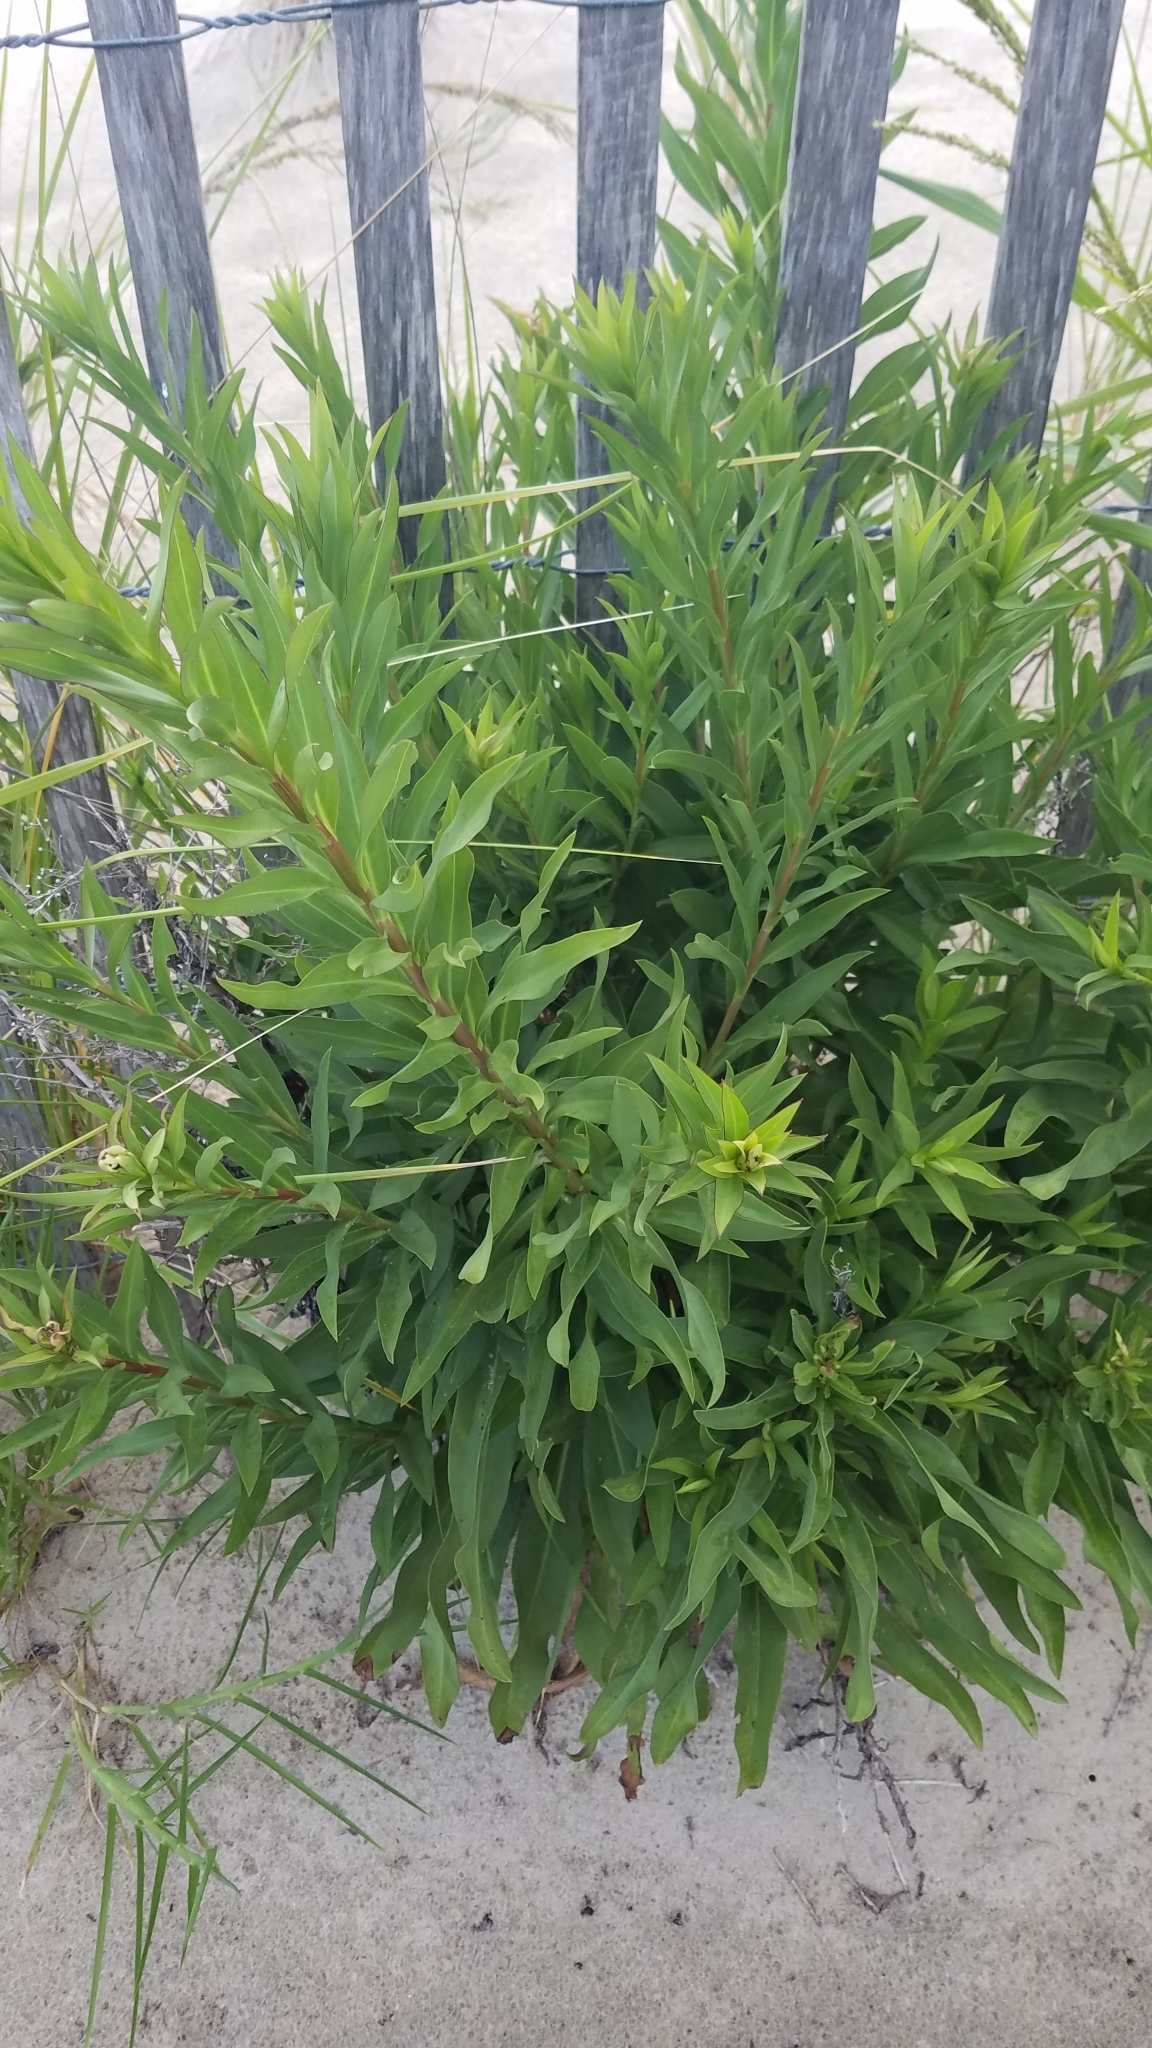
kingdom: Plantae
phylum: Tracheophyta
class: Magnoliopsida
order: Asterales
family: Asteraceae
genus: Solidago
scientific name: Solidago sempervirens
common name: Salt-marsh goldenrod
